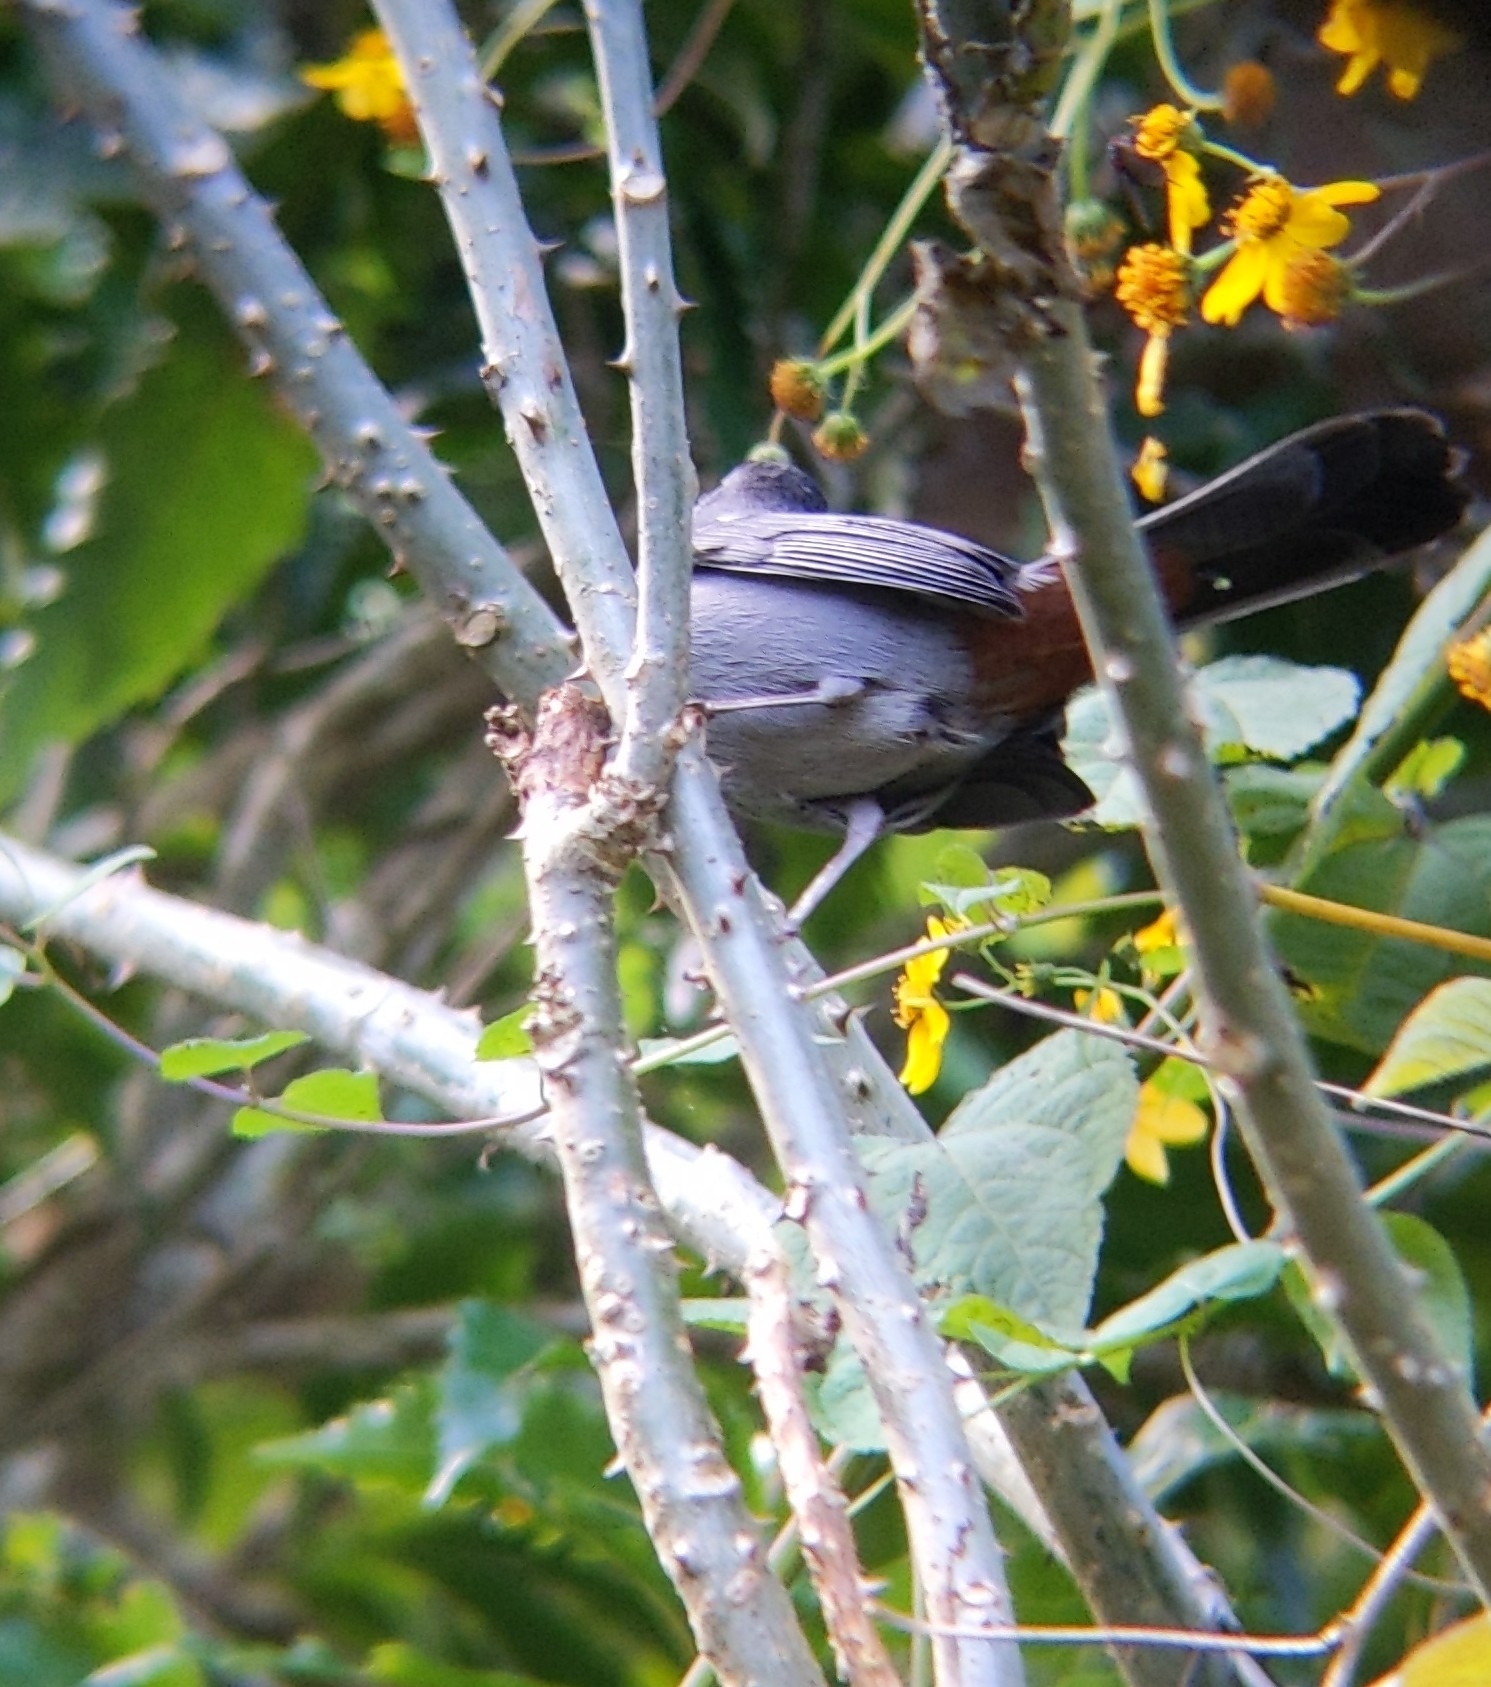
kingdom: Animalia
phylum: Chordata
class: Aves
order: Passeriformes
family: Mimidae
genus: Dumetella
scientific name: Dumetella carolinensis
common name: Gray catbird
